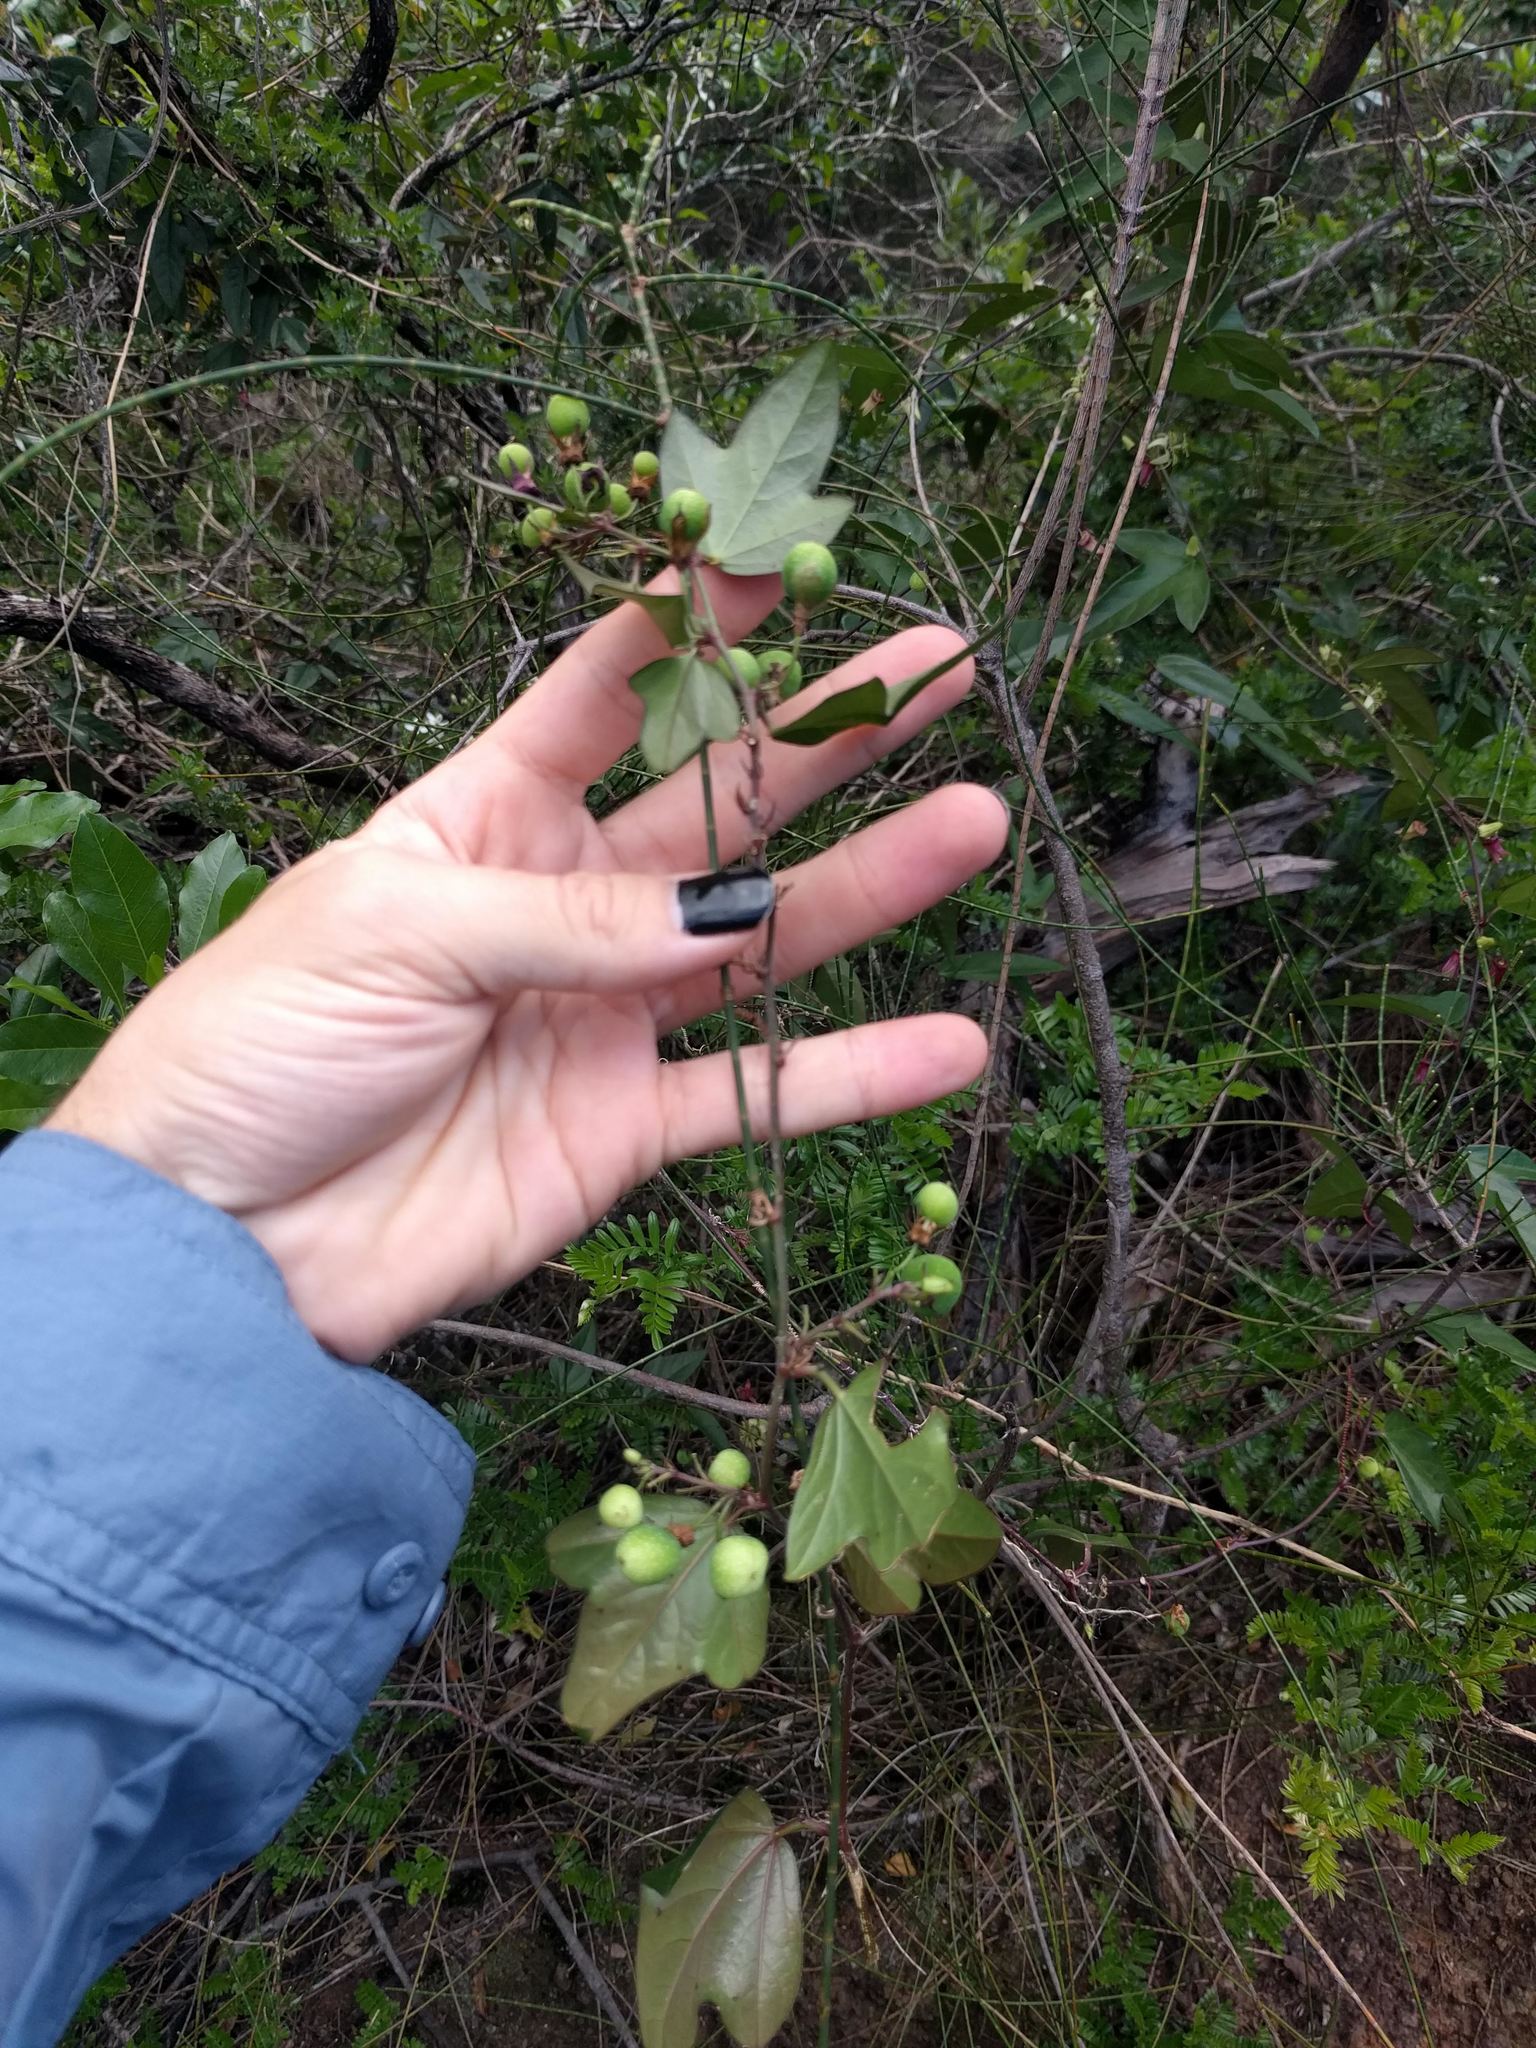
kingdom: Plantae
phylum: Tracheophyta
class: Magnoliopsida
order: Malpighiales
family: Passifloraceae
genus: Passiflora
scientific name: Passiflora suberosa
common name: Wild passionfruit
